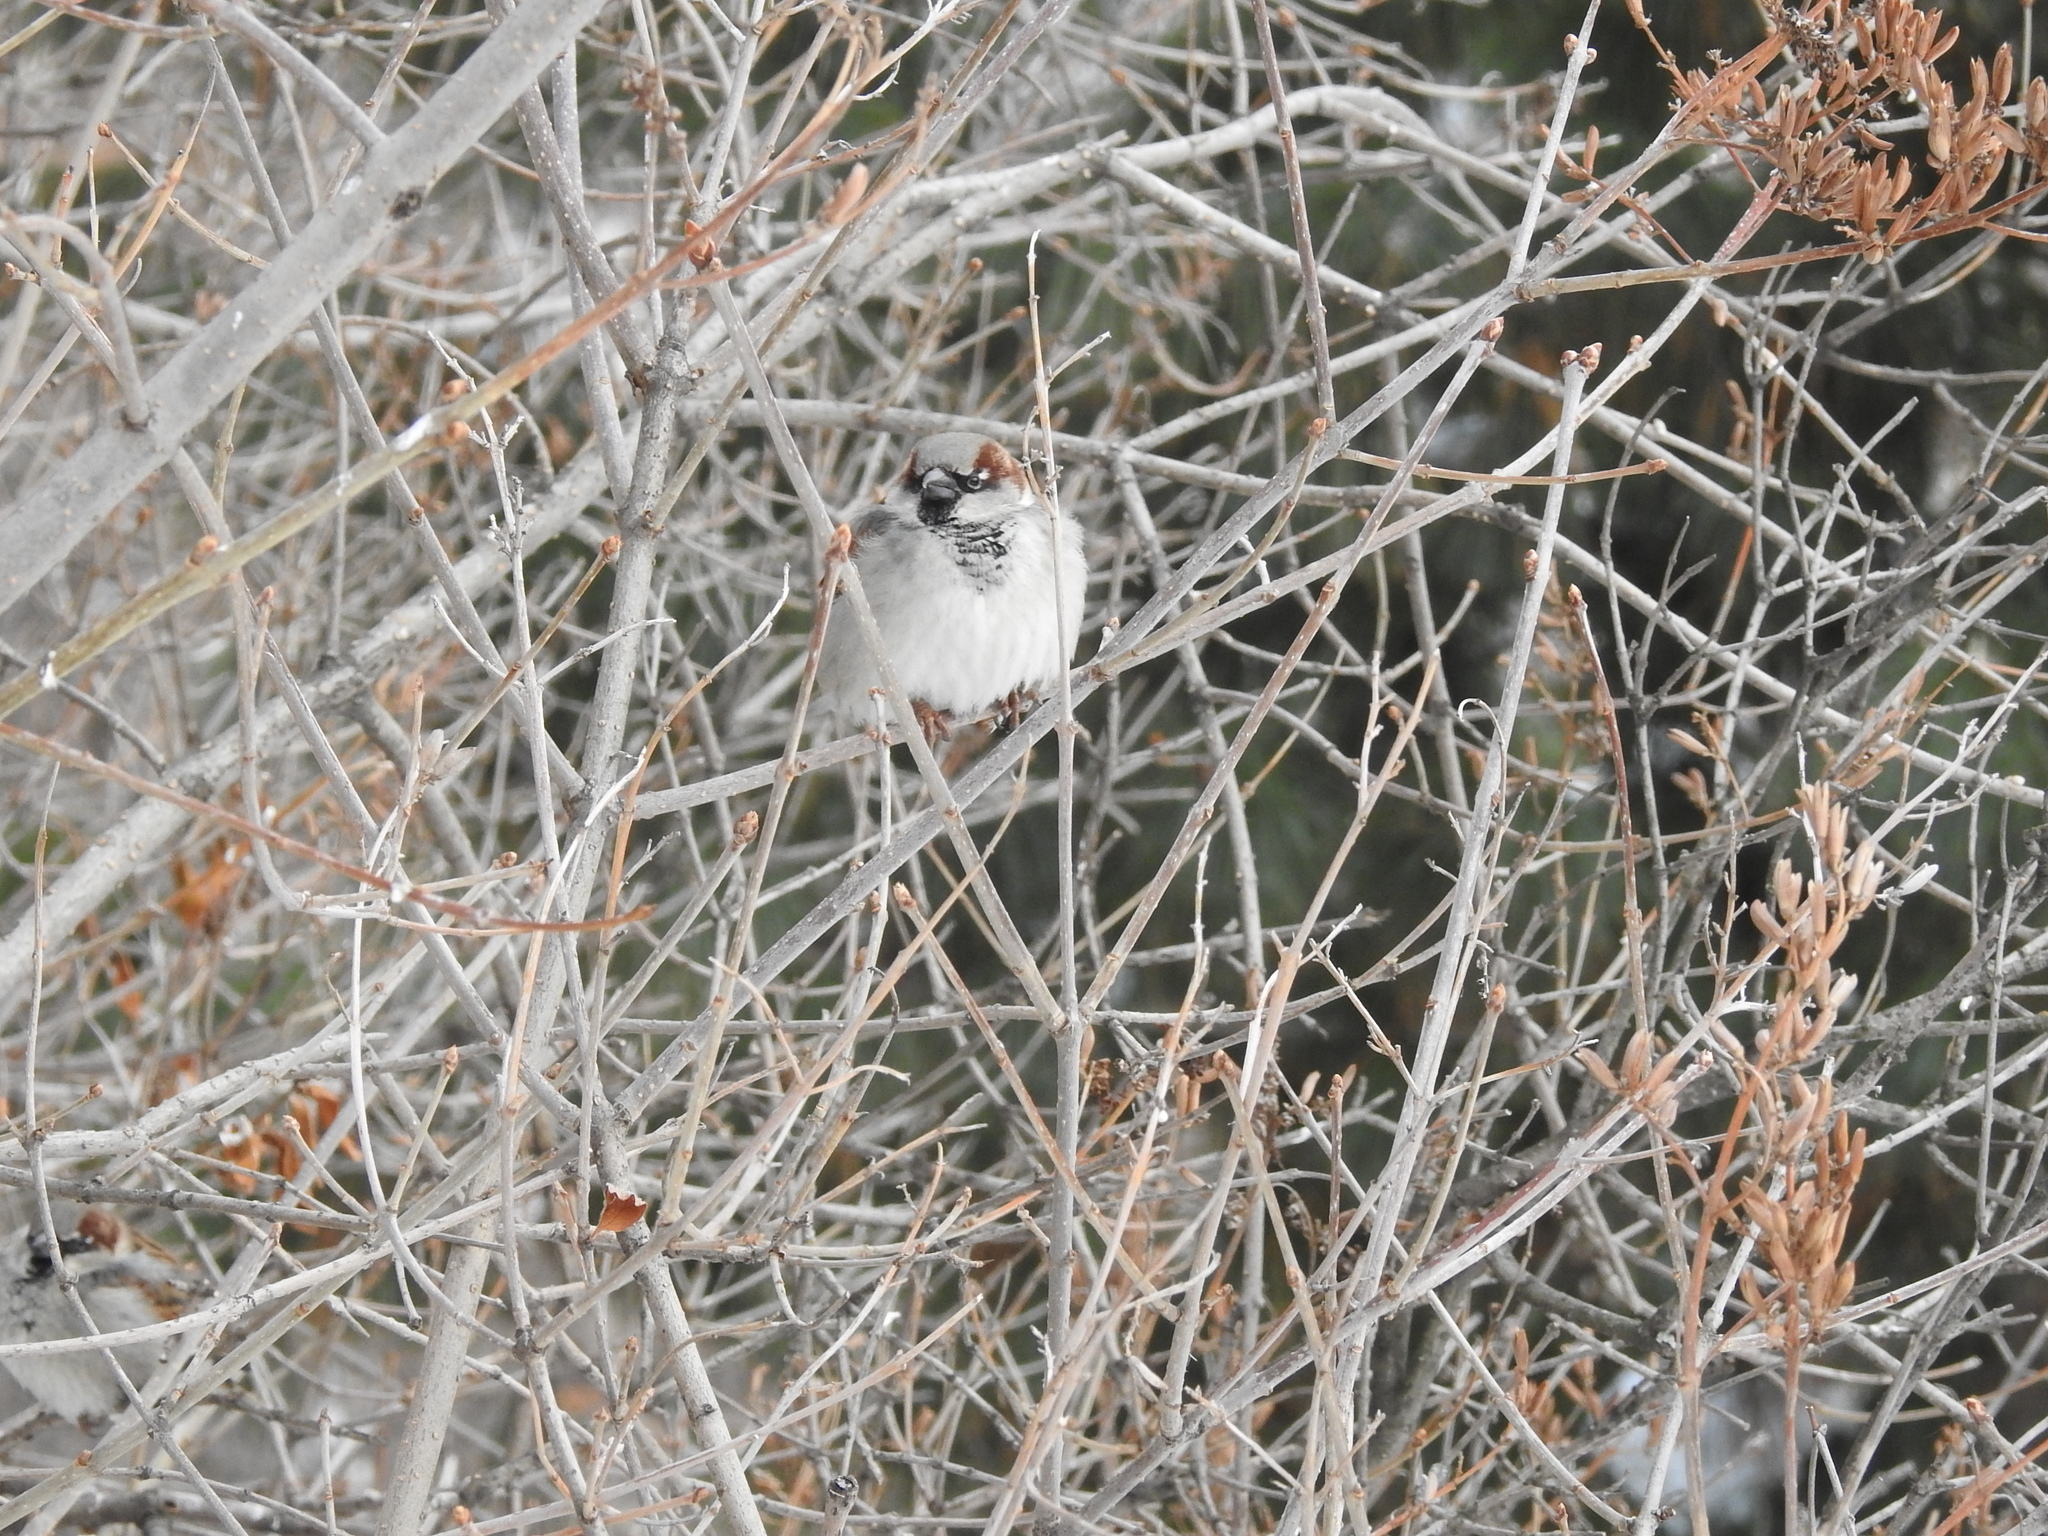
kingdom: Animalia
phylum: Chordata
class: Aves
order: Passeriformes
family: Passeridae
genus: Passer
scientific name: Passer domesticus
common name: House sparrow
